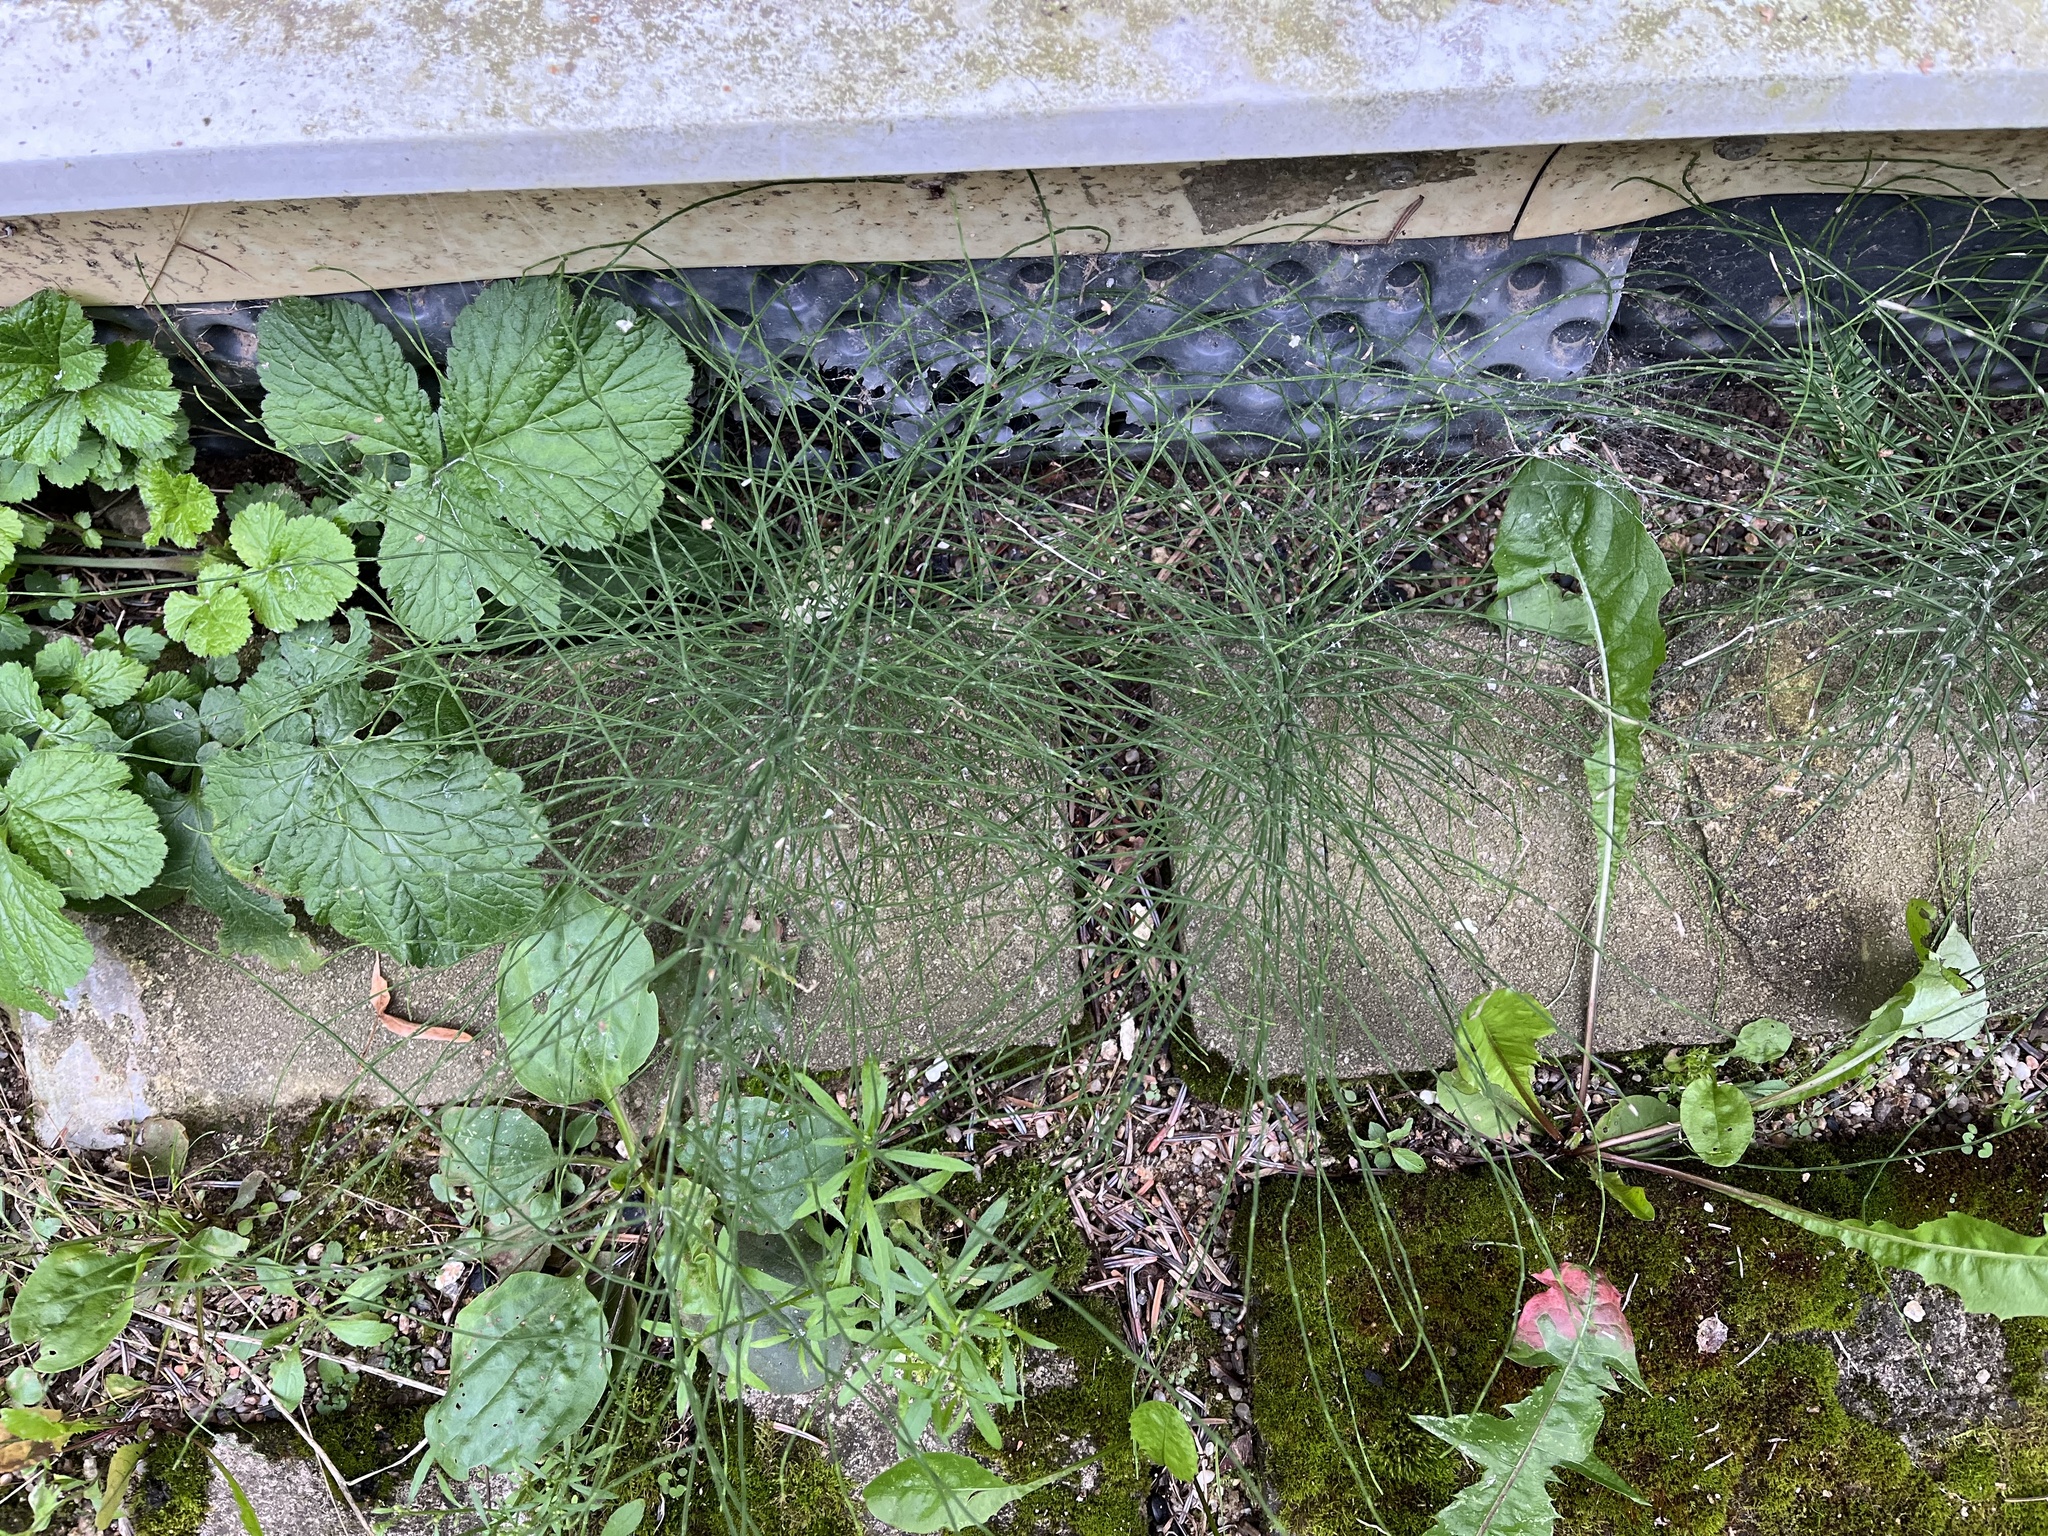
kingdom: Plantae
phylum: Tracheophyta
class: Polypodiopsida
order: Equisetales
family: Equisetaceae
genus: Equisetum
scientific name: Equisetum arvense
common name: Field horsetail
